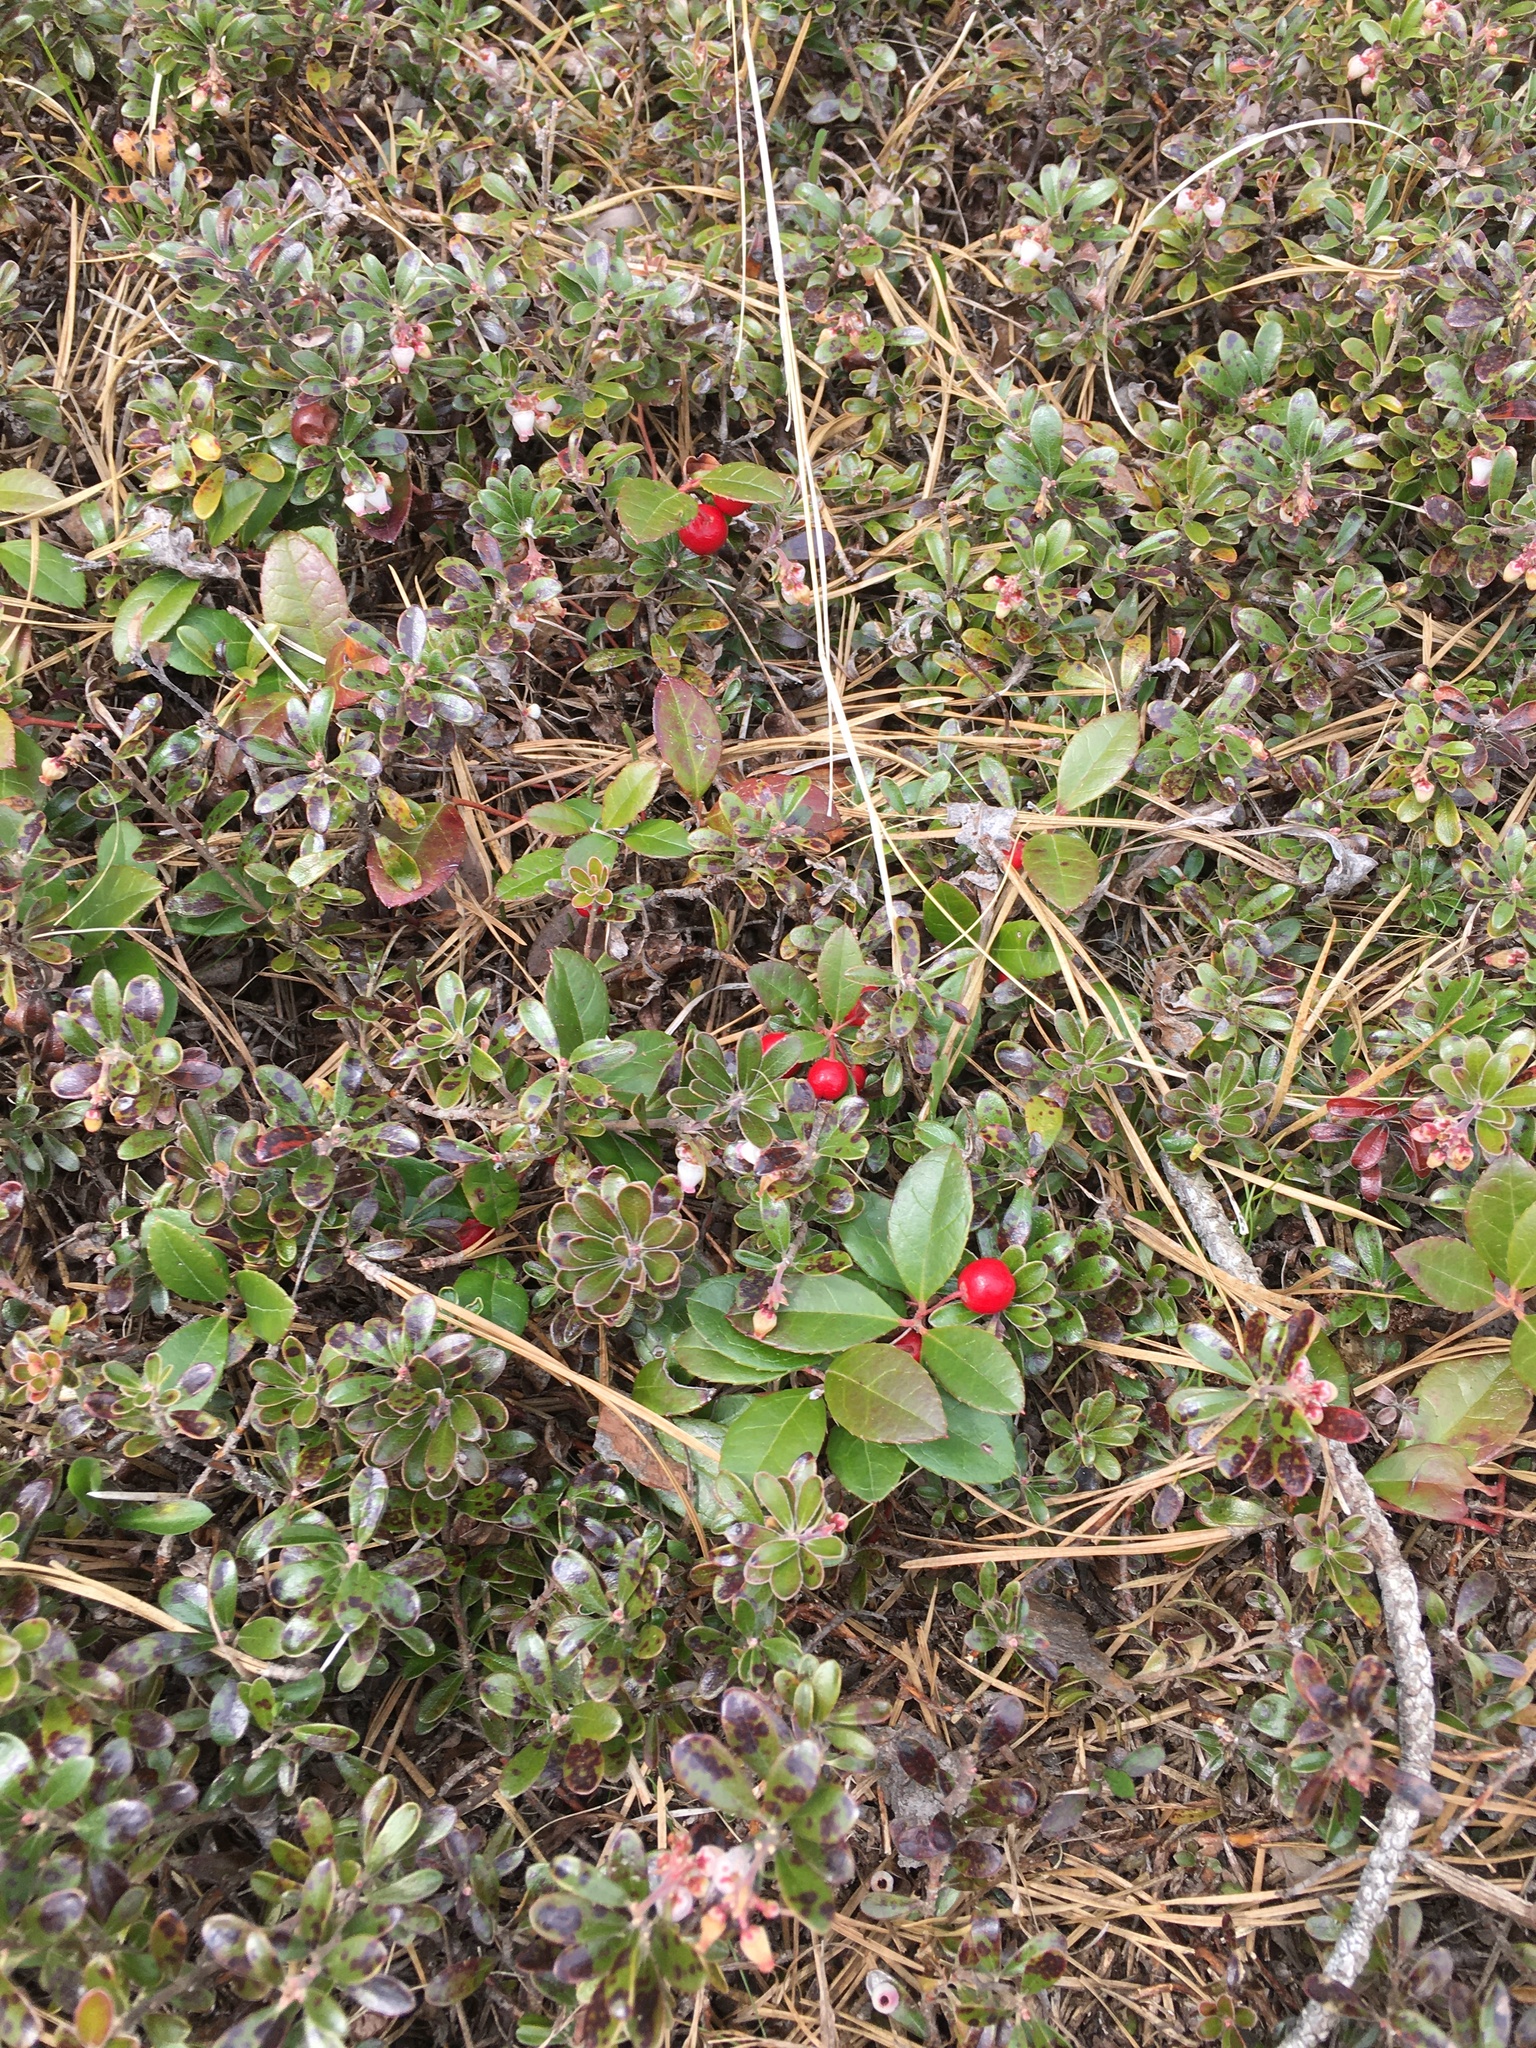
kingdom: Plantae
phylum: Tracheophyta
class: Magnoliopsida
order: Ericales
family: Ericaceae
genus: Arctostaphylos
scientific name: Arctostaphylos uva-ursi
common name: Bearberry
